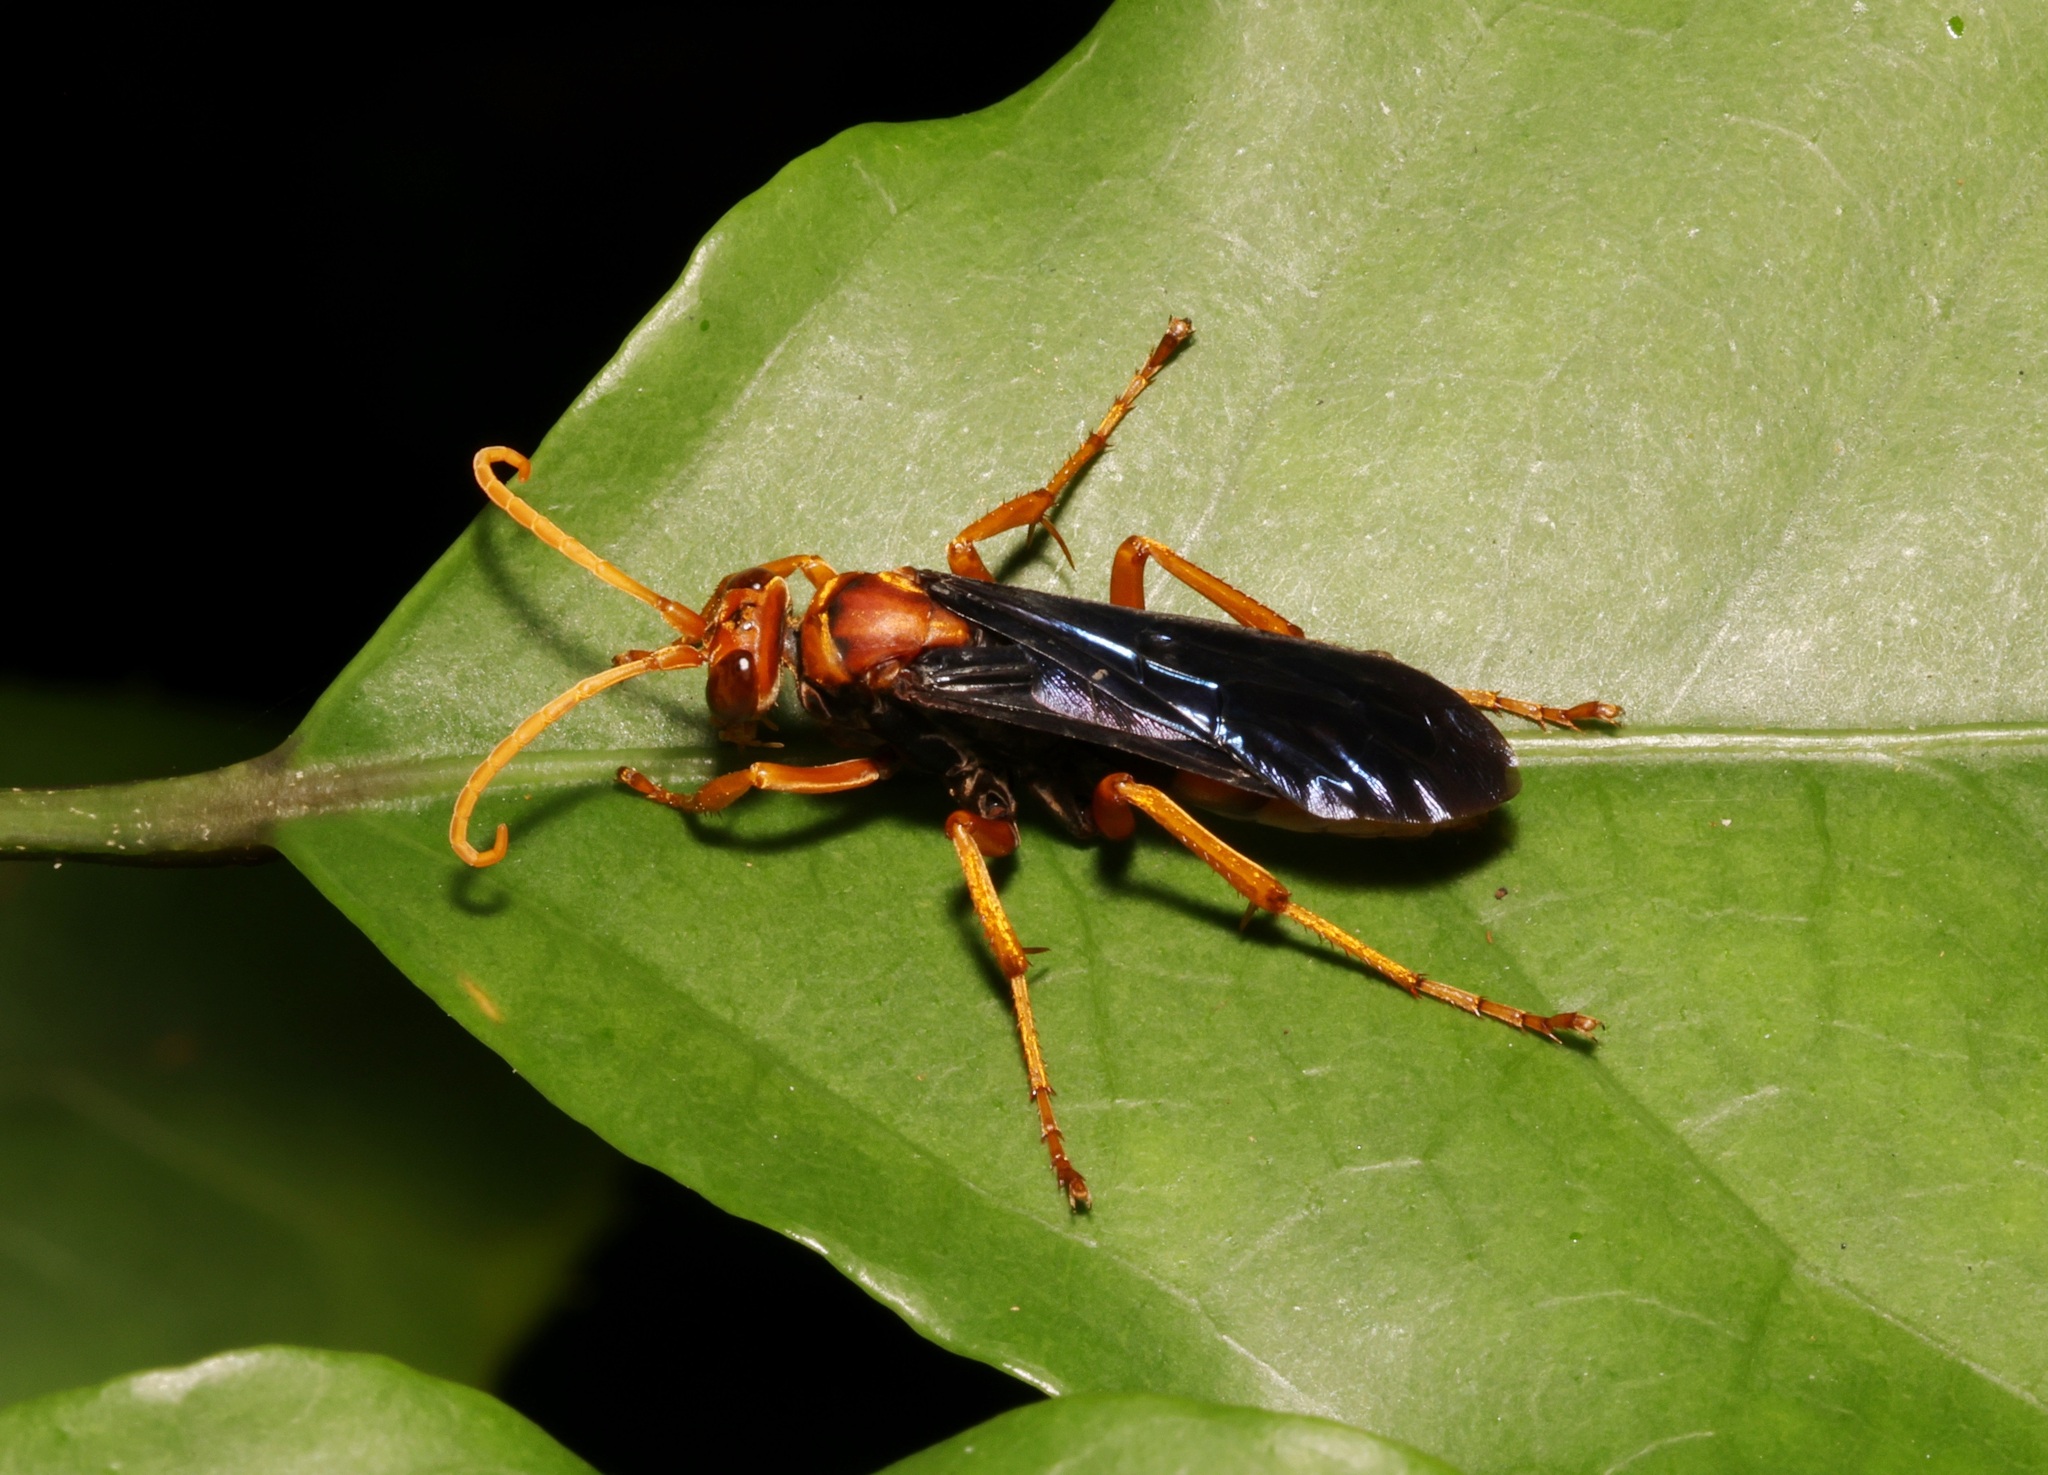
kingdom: Animalia
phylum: Arthropoda
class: Insecta
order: Hymenoptera
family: Pompilidae
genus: Hemipepsis
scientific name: Hemipepsis sogdiana
